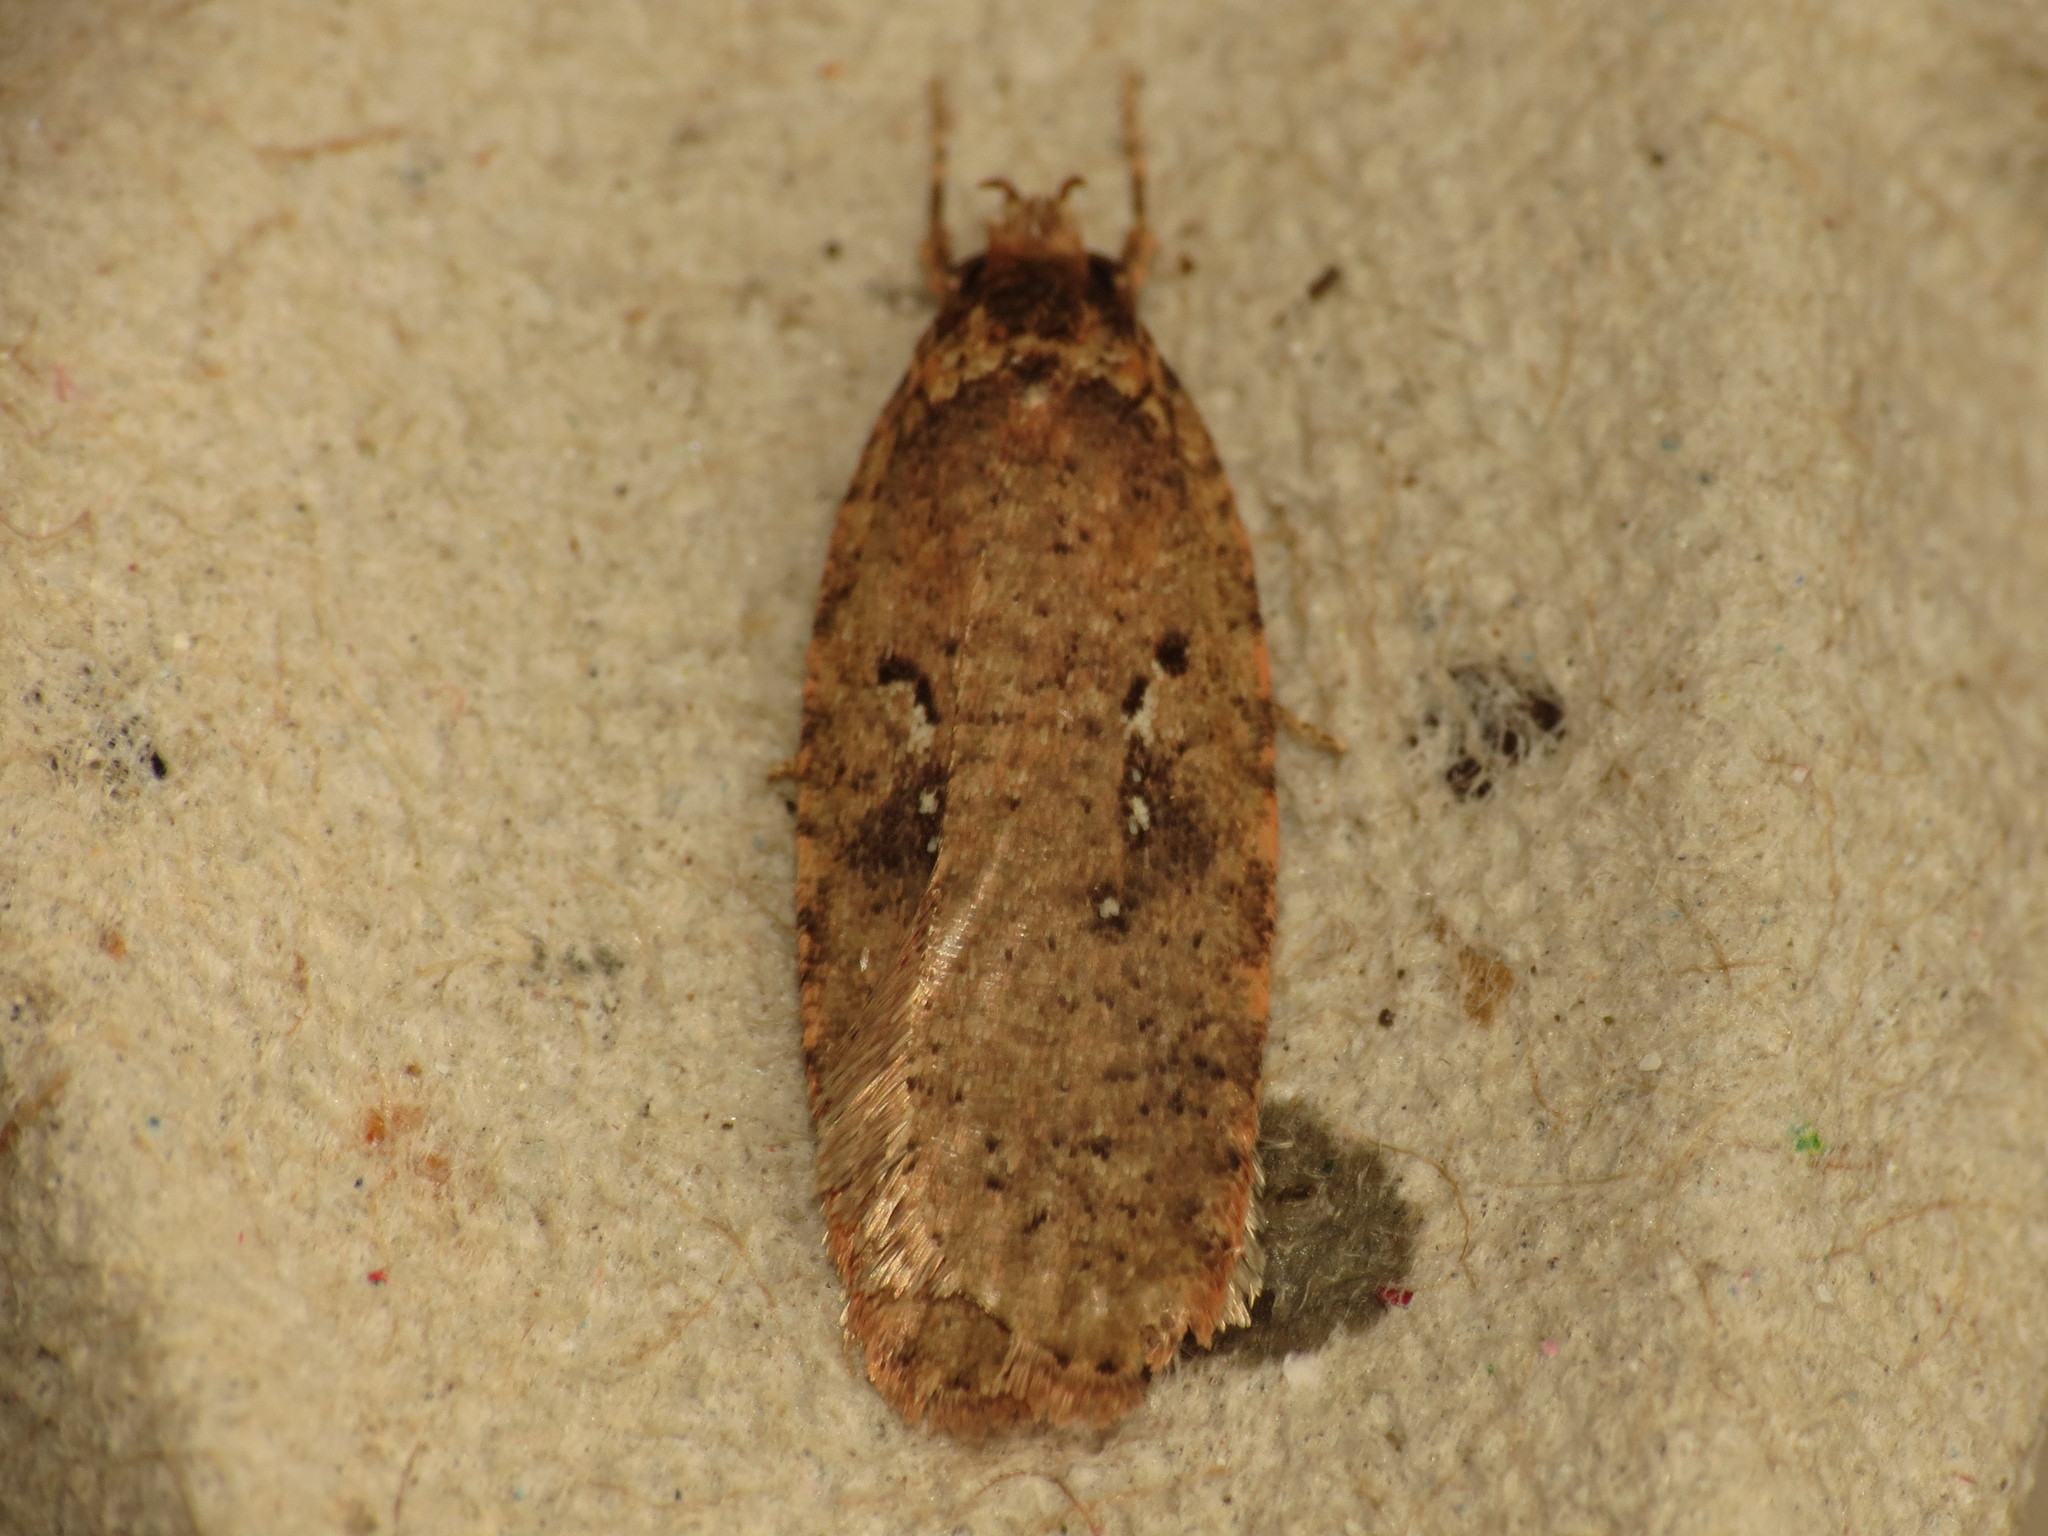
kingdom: Animalia
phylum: Arthropoda
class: Insecta
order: Lepidoptera
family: Depressariidae
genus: Agonopterix
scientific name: Agonopterix heracliana
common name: Common flat-body
